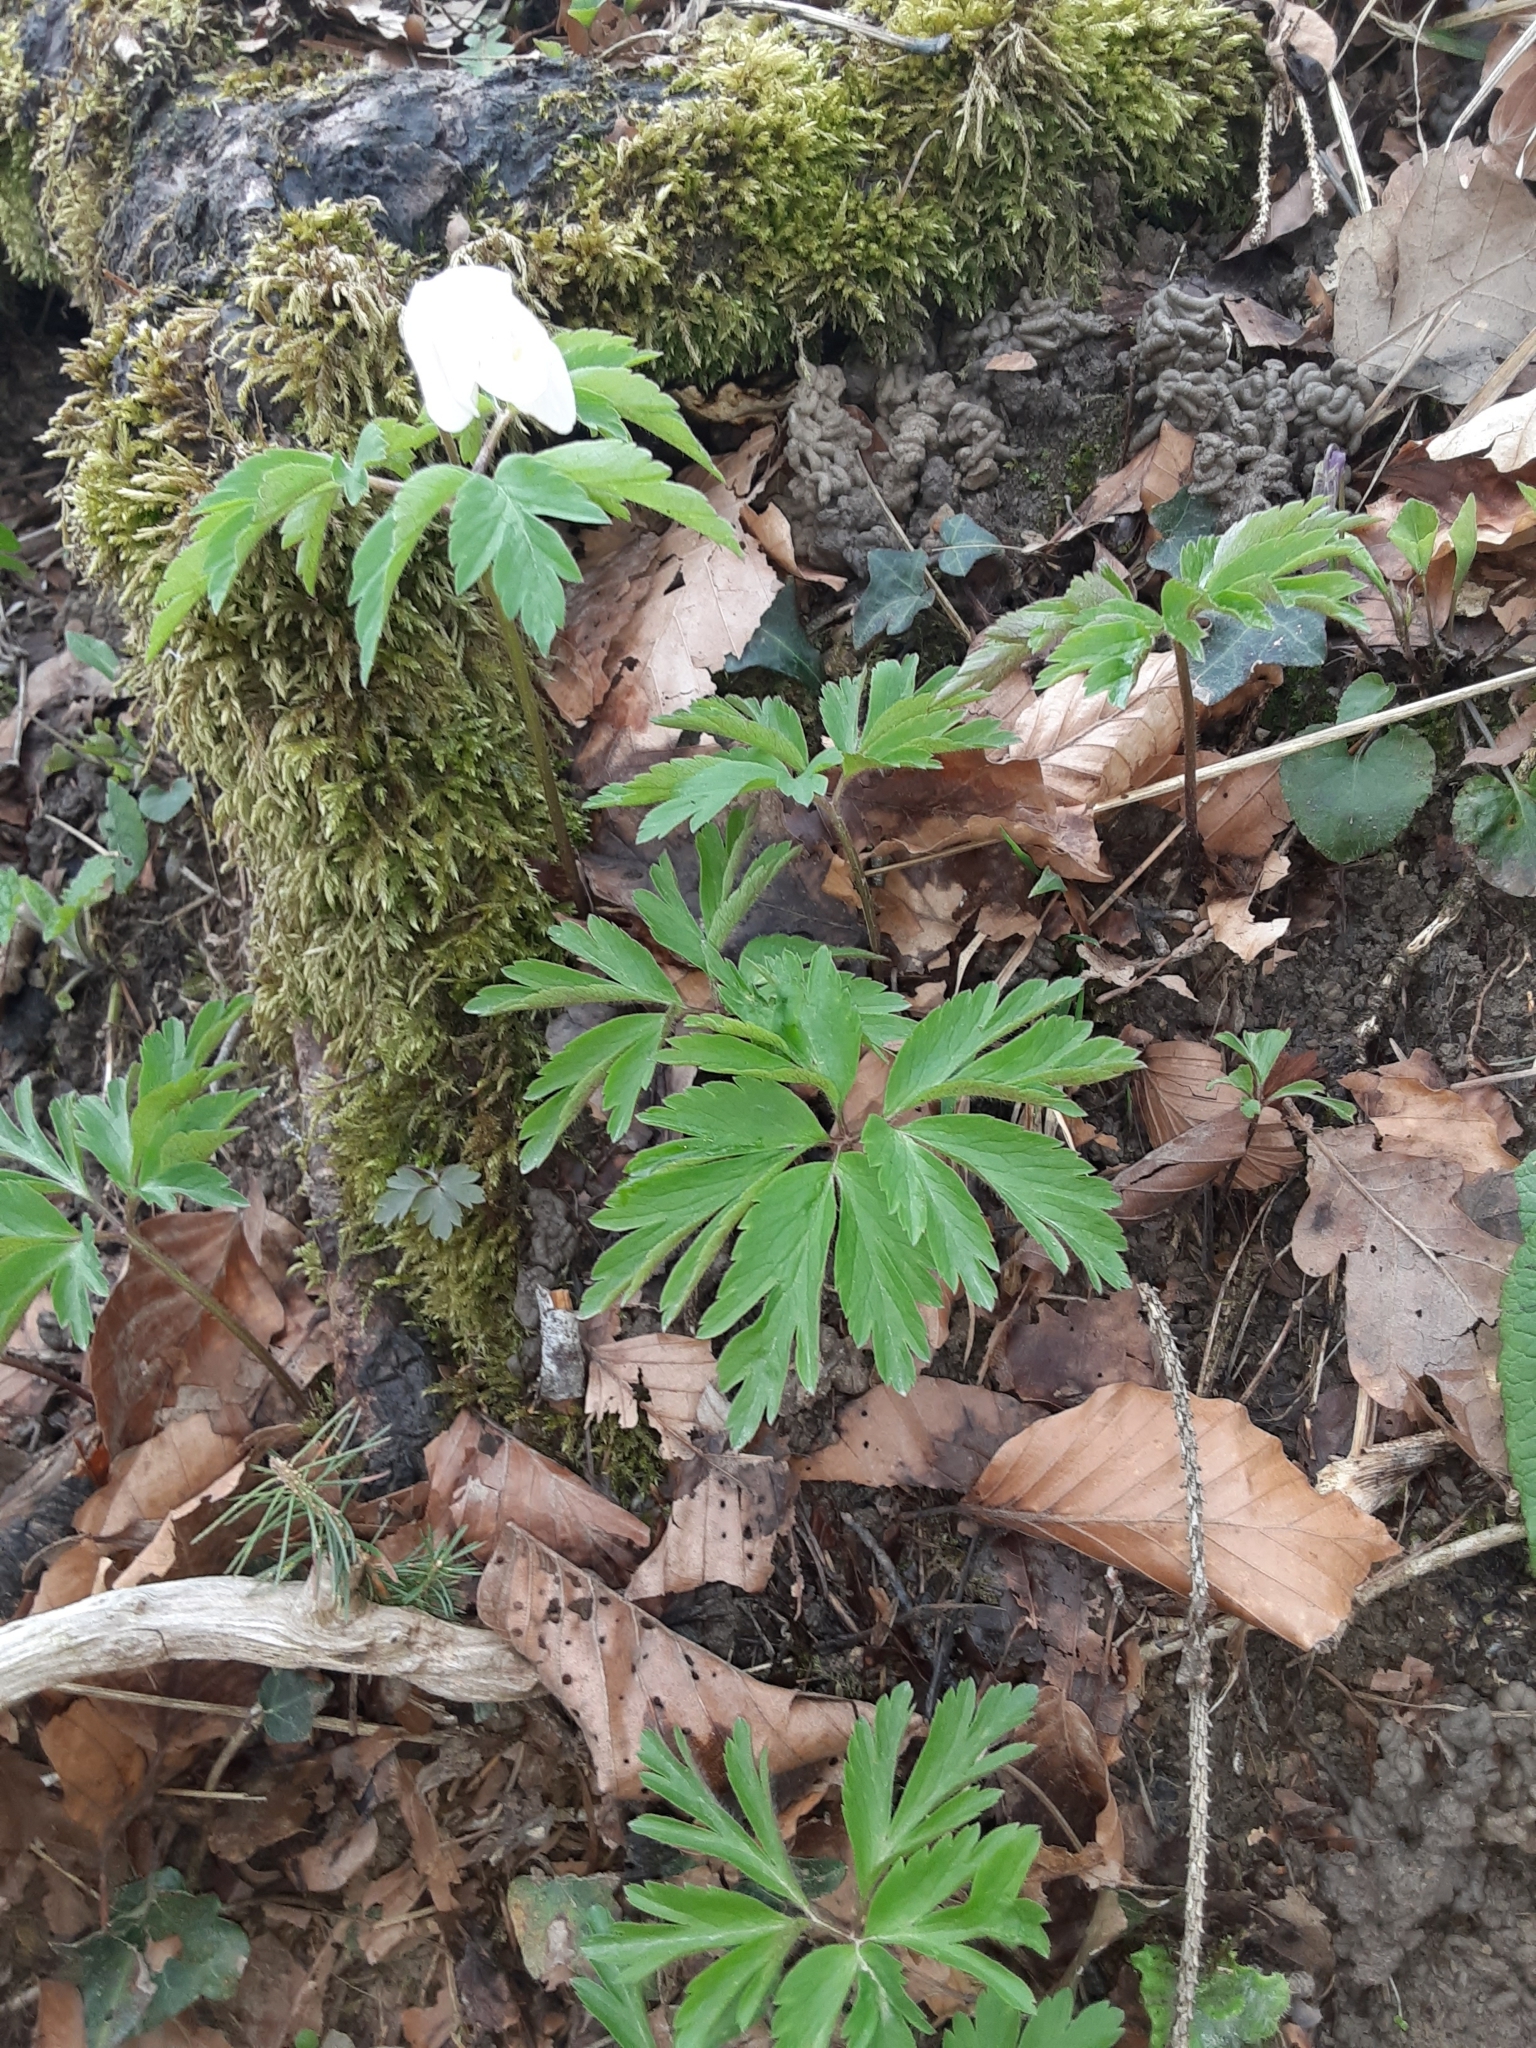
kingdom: Plantae
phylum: Tracheophyta
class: Magnoliopsida
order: Ranunculales
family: Ranunculaceae
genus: Anemone
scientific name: Anemone nemorosa
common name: Wood anemone
